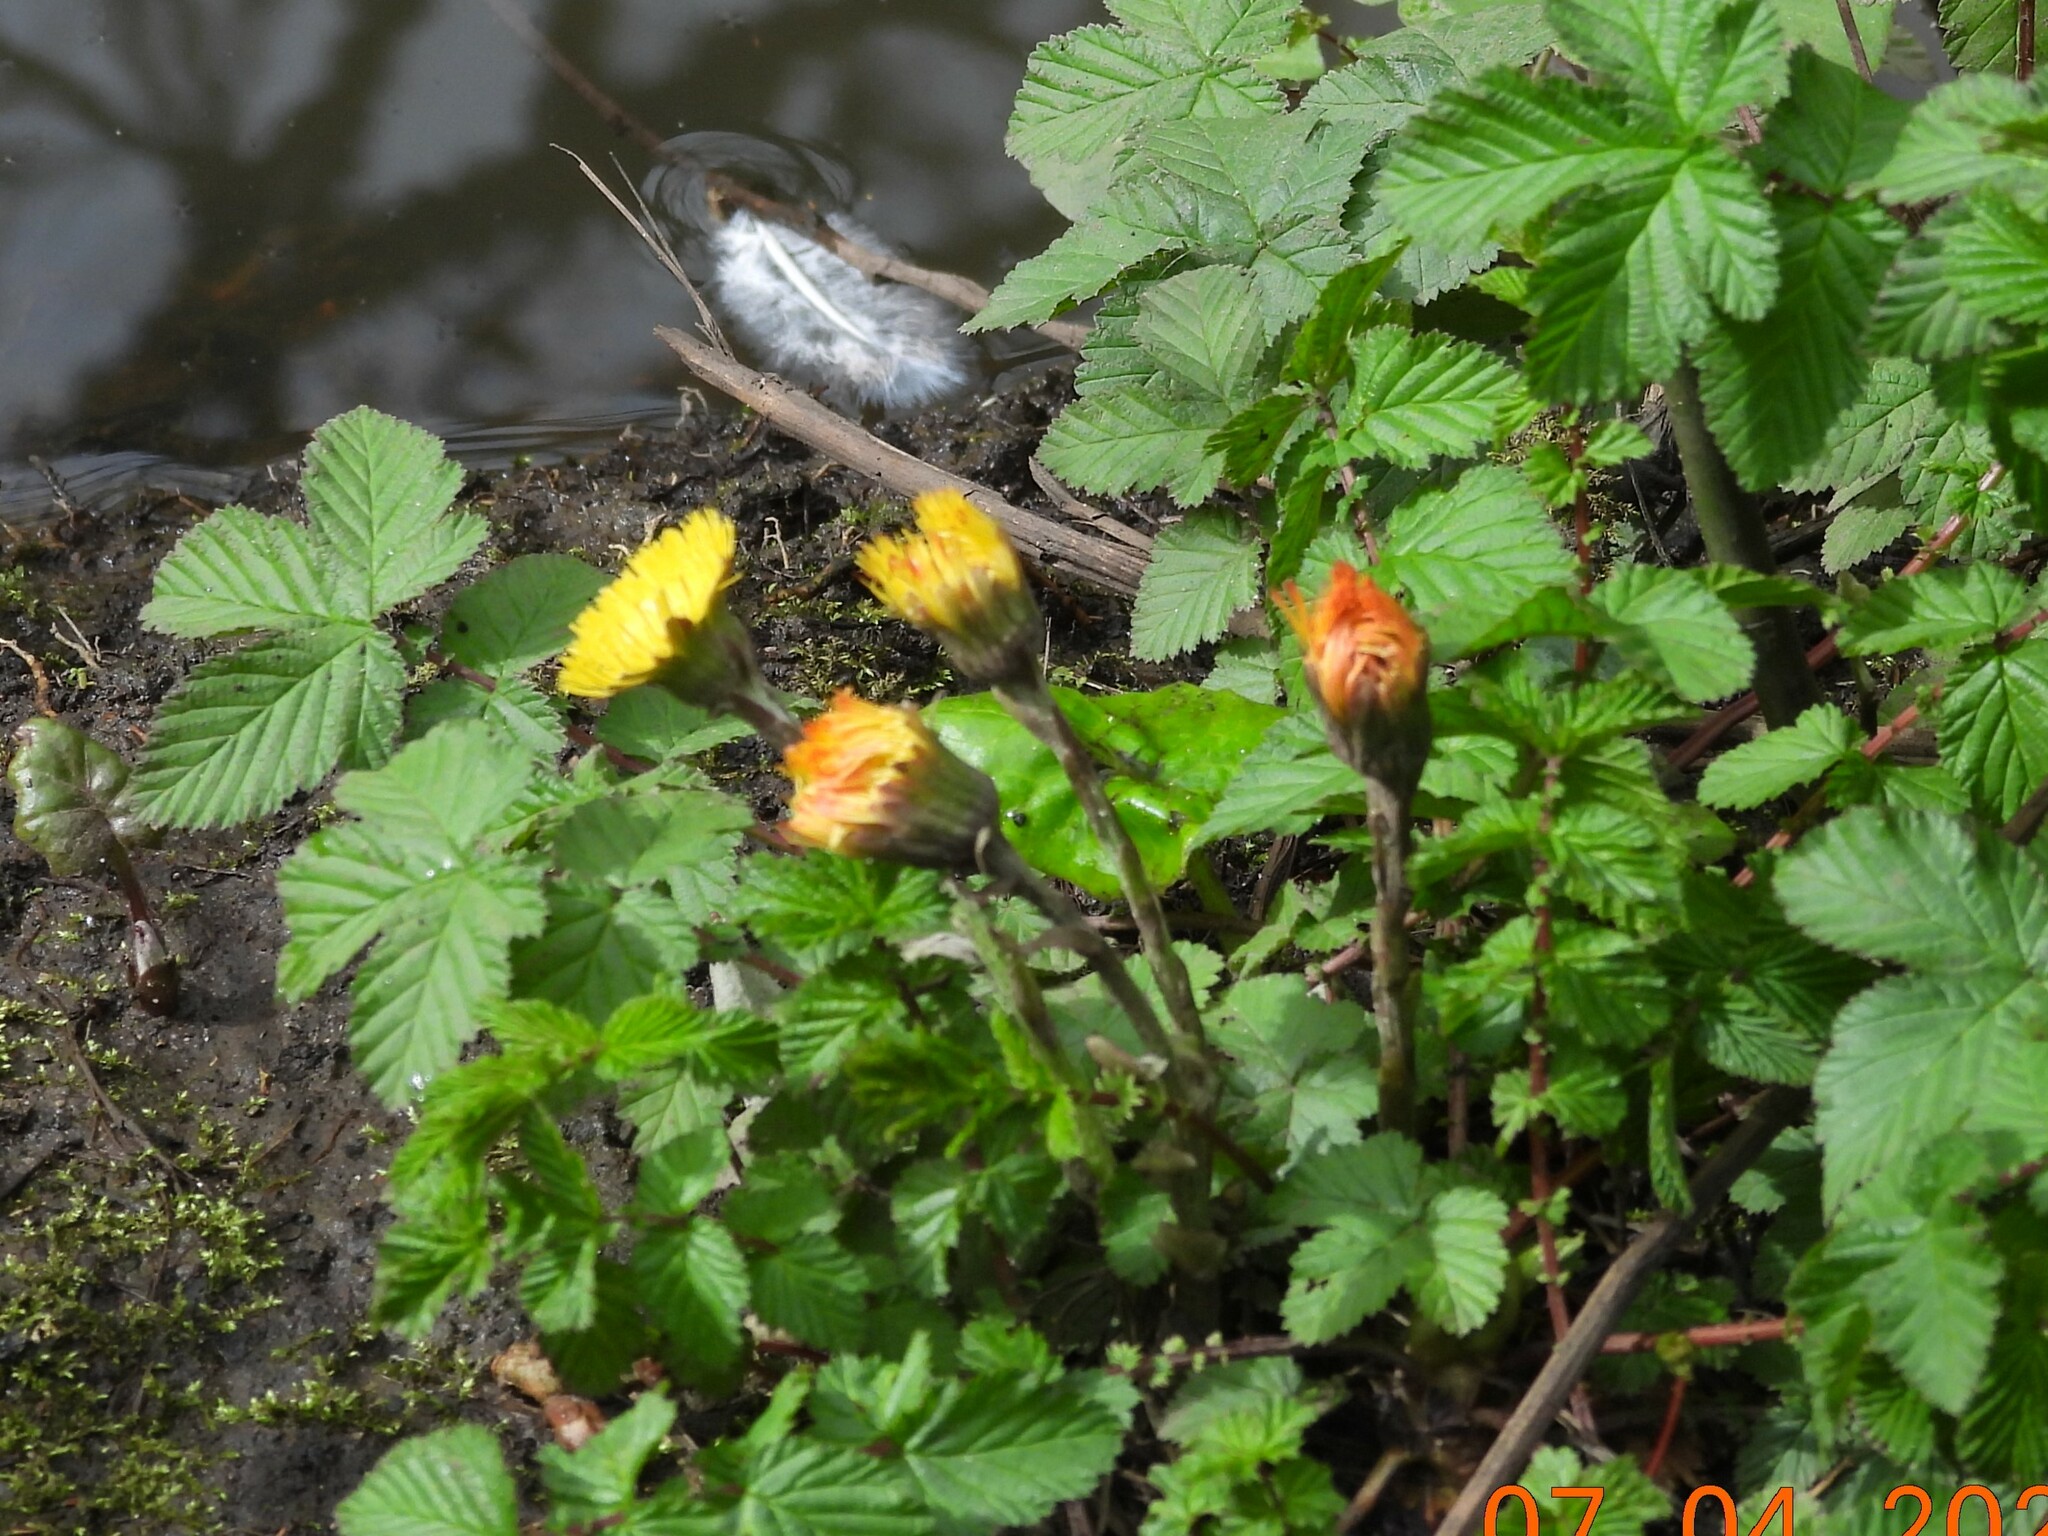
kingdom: Plantae
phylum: Tracheophyta
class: Magnoliopsida
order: Asterales
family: Asteraceae
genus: Tussilago
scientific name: Tussilago farfara
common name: Coltsfoot
